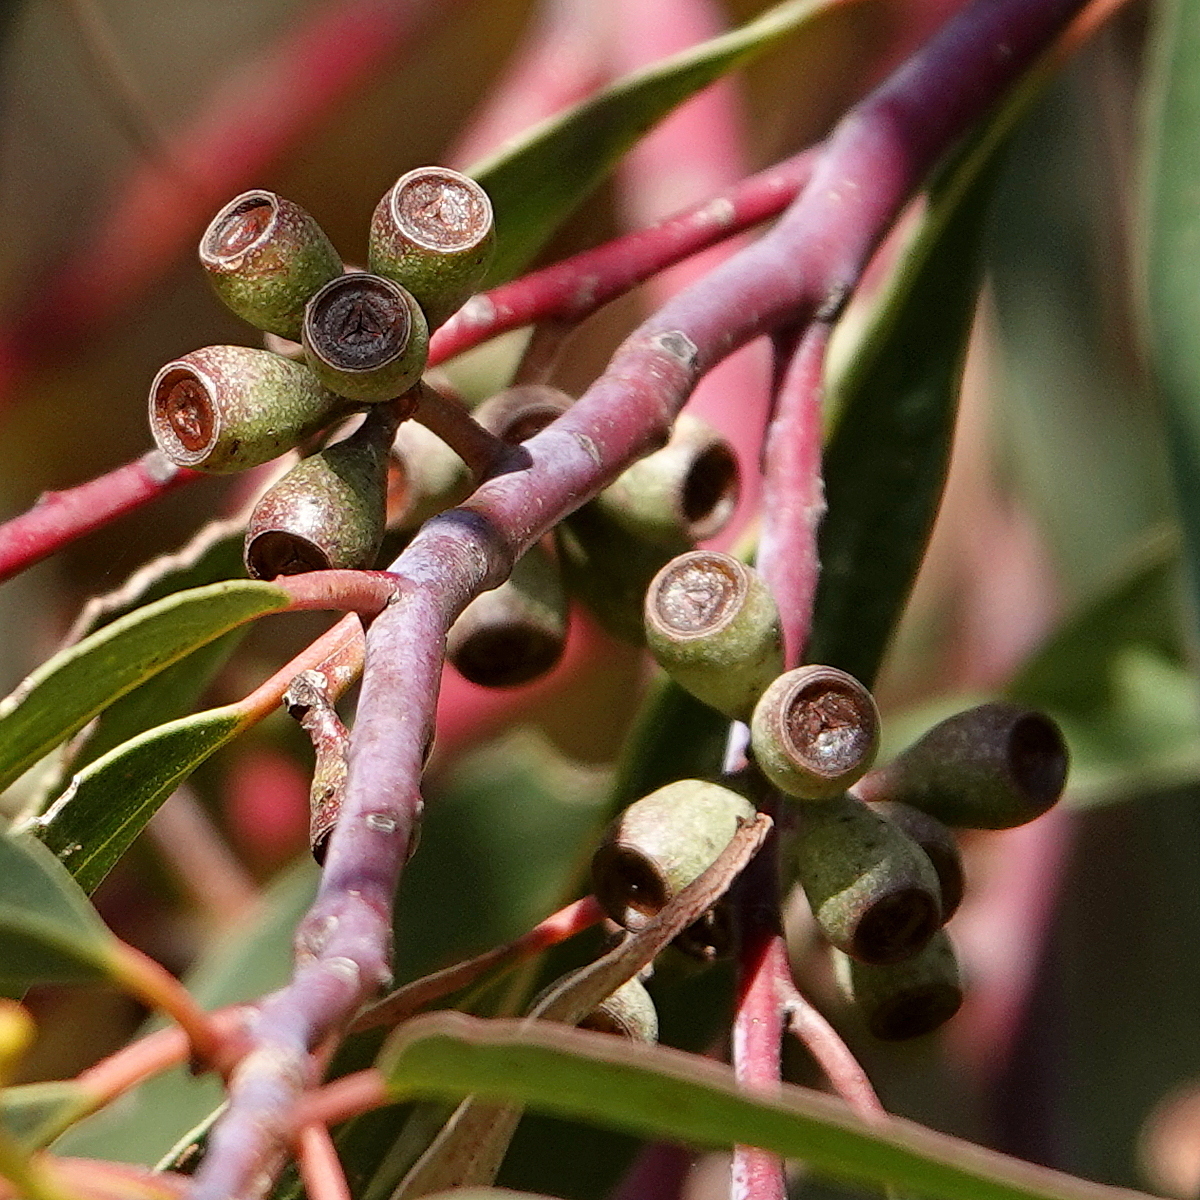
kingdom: Plantae
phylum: Tracheophyta
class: Magnoliopsida
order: Myrtales
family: Myrtaceae
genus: Eucalyptus
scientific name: Eucalyptus sieberi
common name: Black-ash
